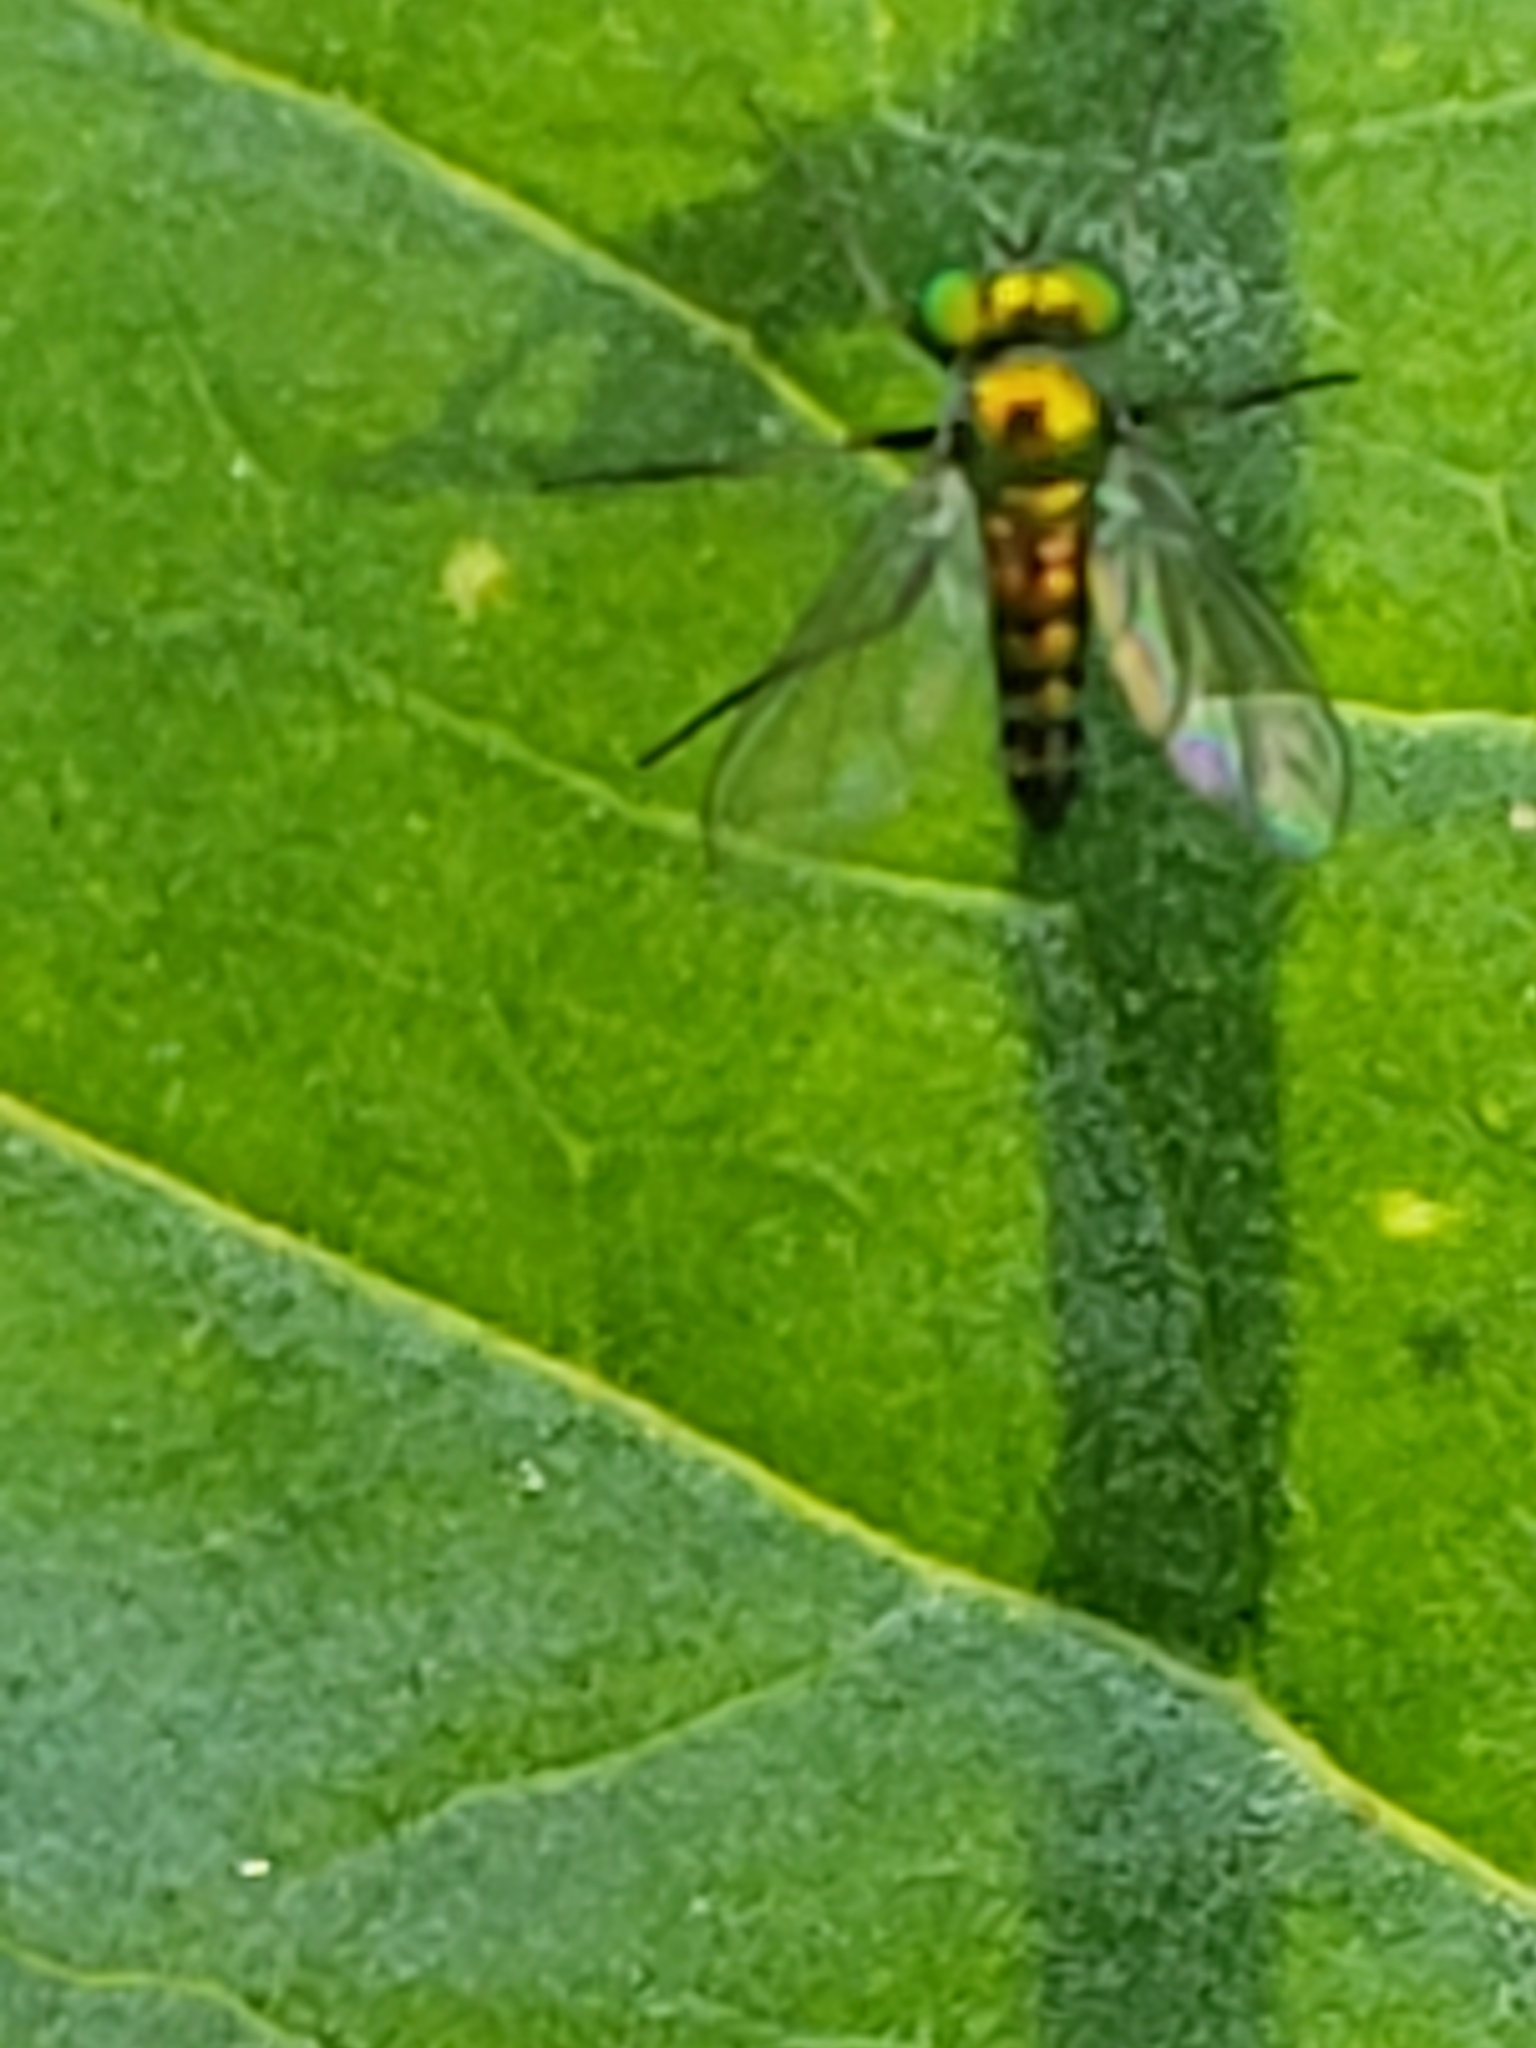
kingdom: Animalia
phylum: Arthropoda
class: Insecta
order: Diptera
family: Dolichopodidae
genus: Condylostylus
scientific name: Condylostylus caudatus
